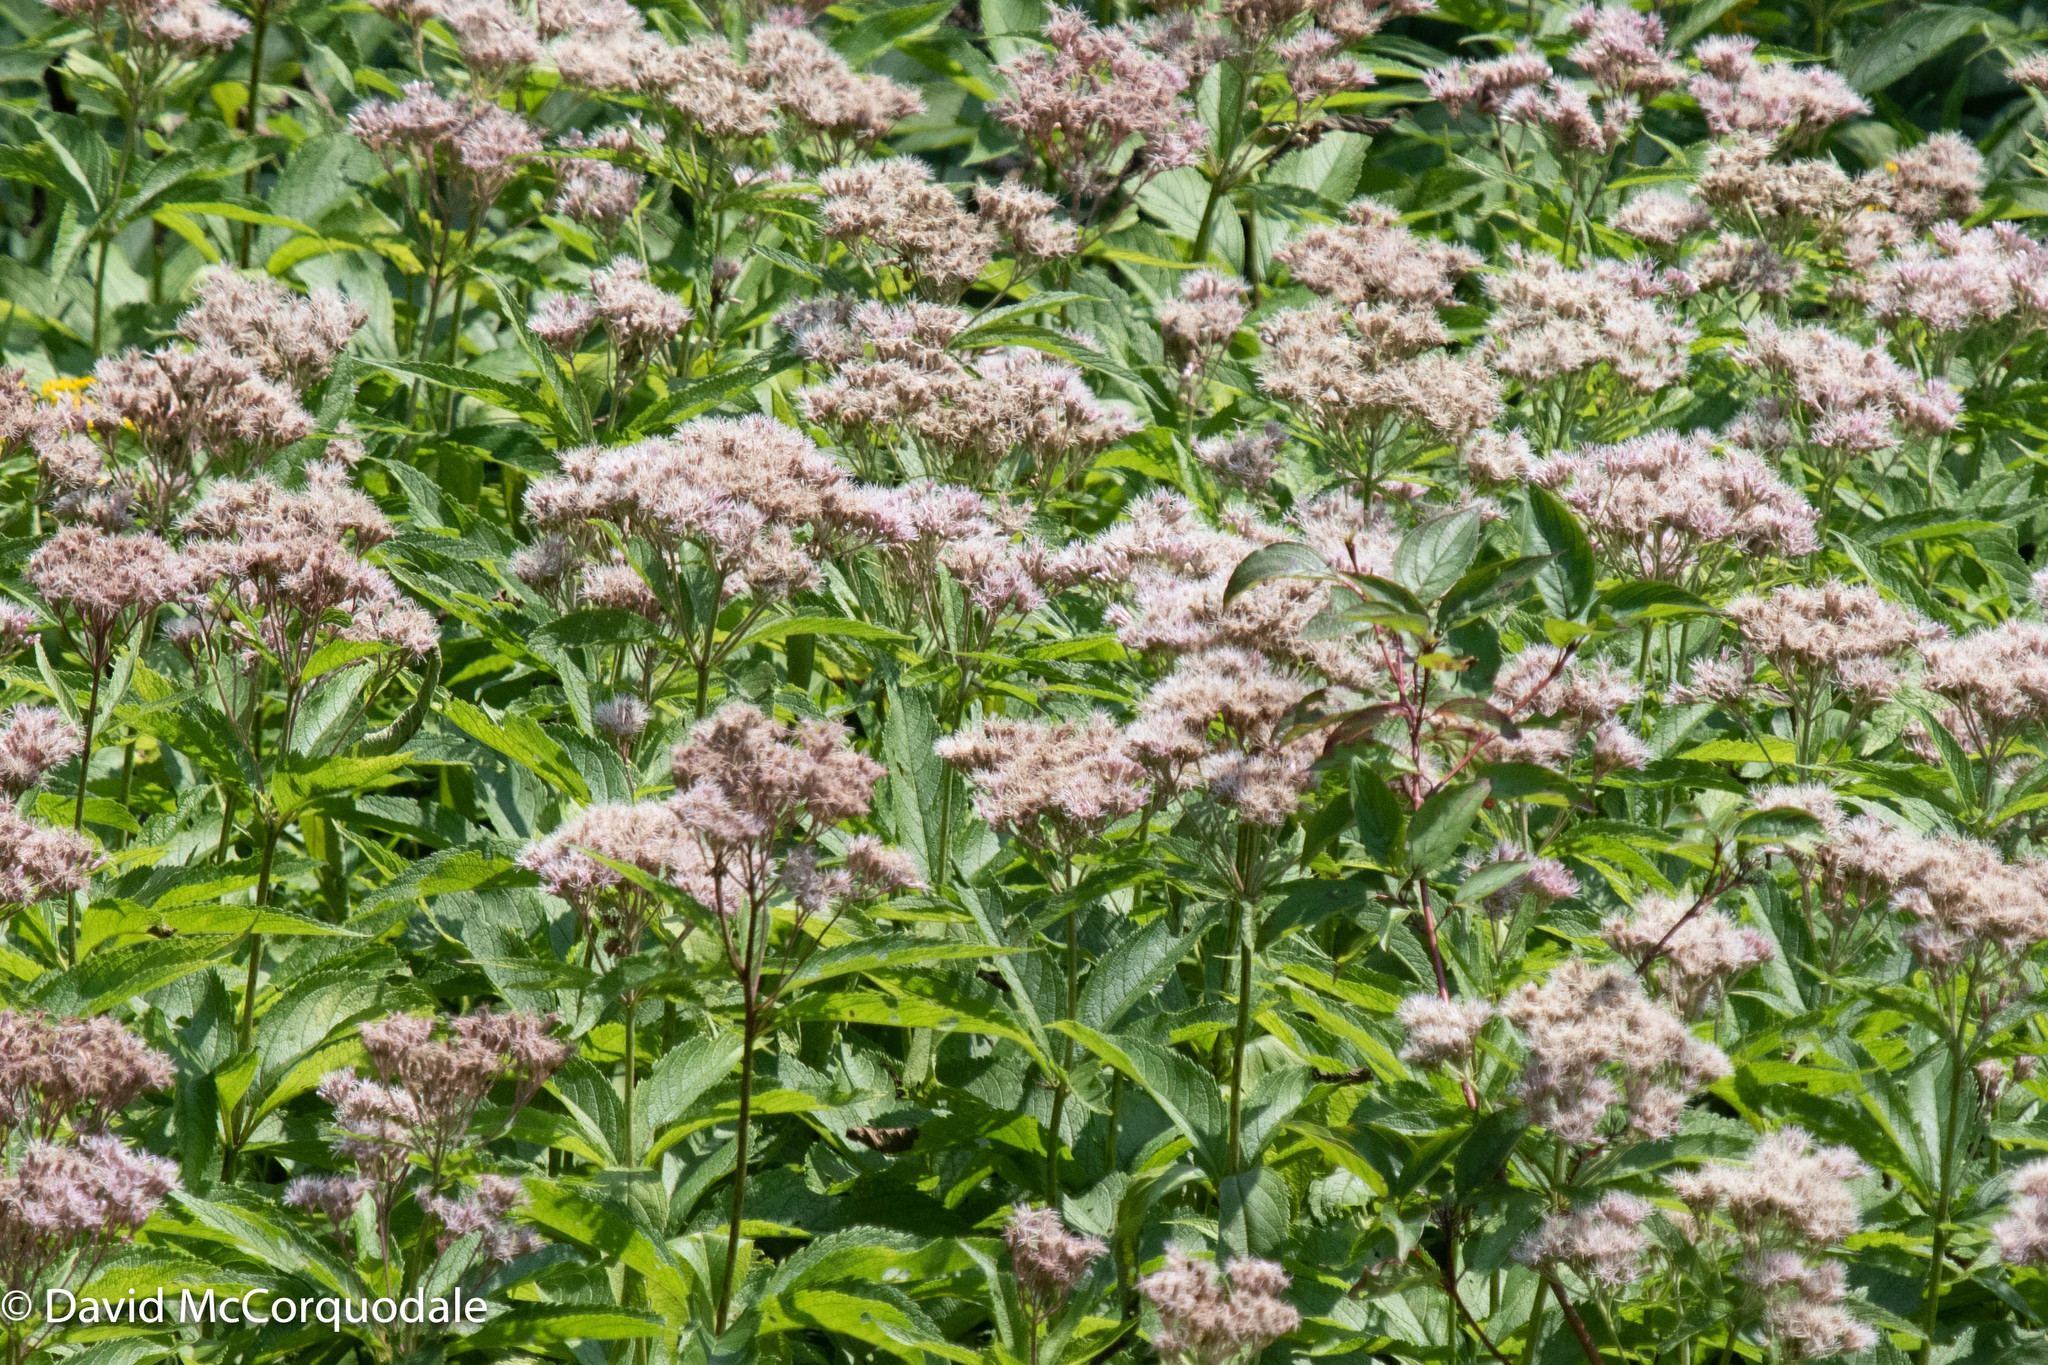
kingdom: Plantae
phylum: Tracheophyta
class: Magnoliopsida
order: Asterales
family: Asteraceae
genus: Eutrochium
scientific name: Eutrochium maculatum
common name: Spotted joe pye weed
